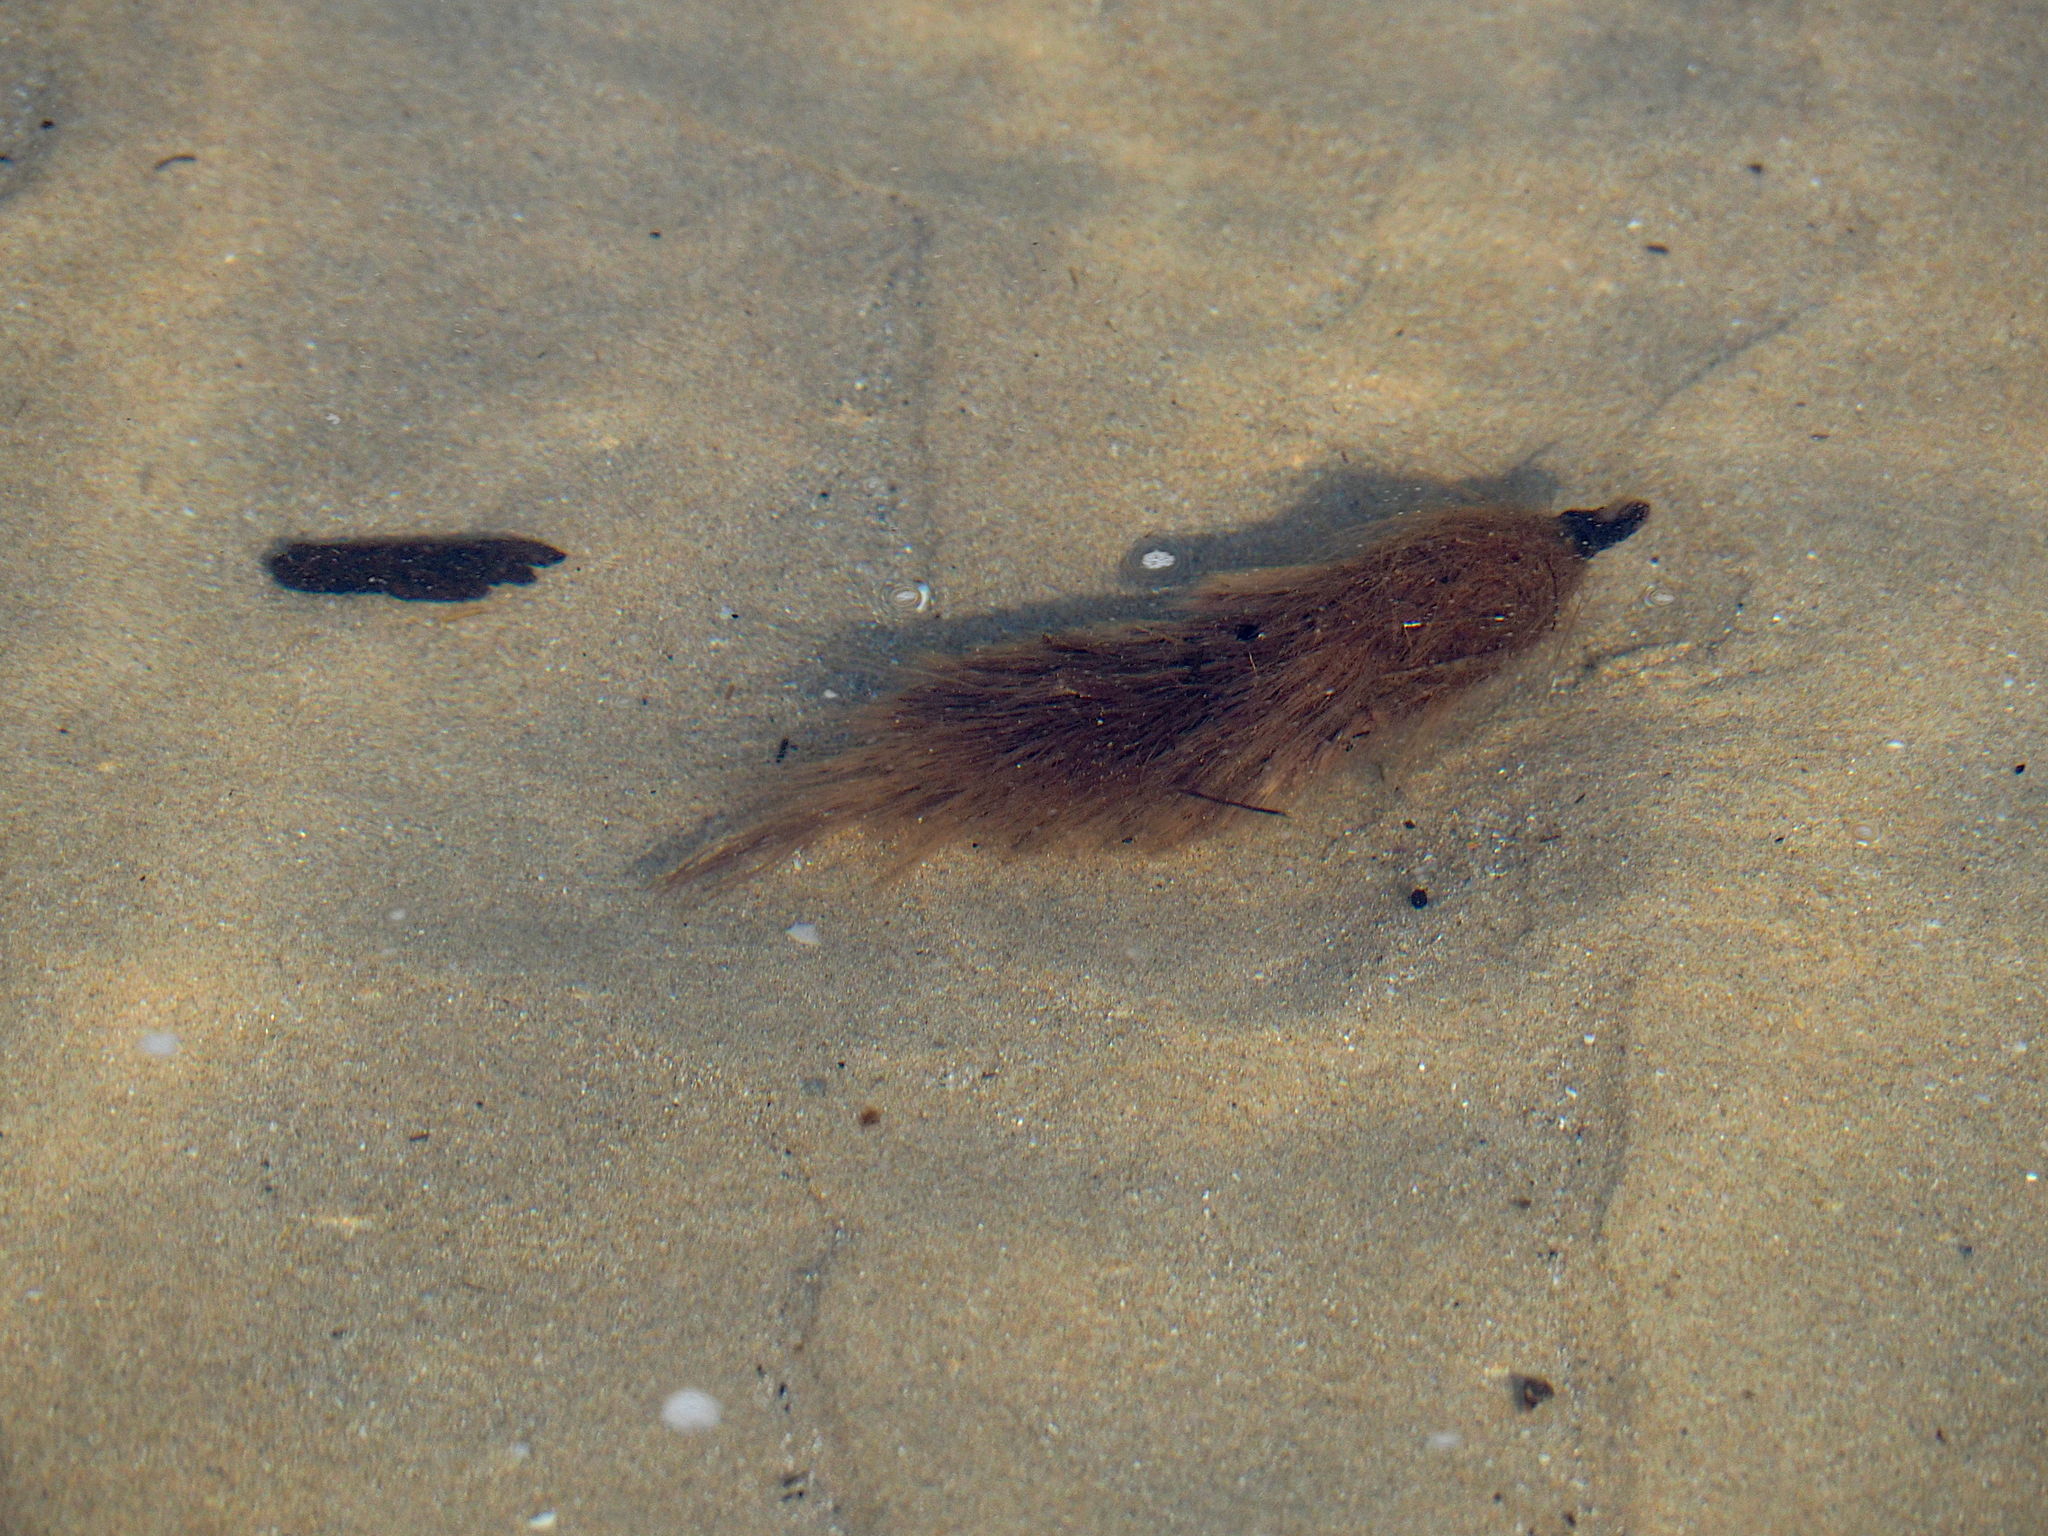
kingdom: Plantae
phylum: Tracheophyta
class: Liliopsida
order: Alismatales
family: Posidoniaceae
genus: Posidonia
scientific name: Posidonia oceanica
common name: Mediterranean tapeweed
